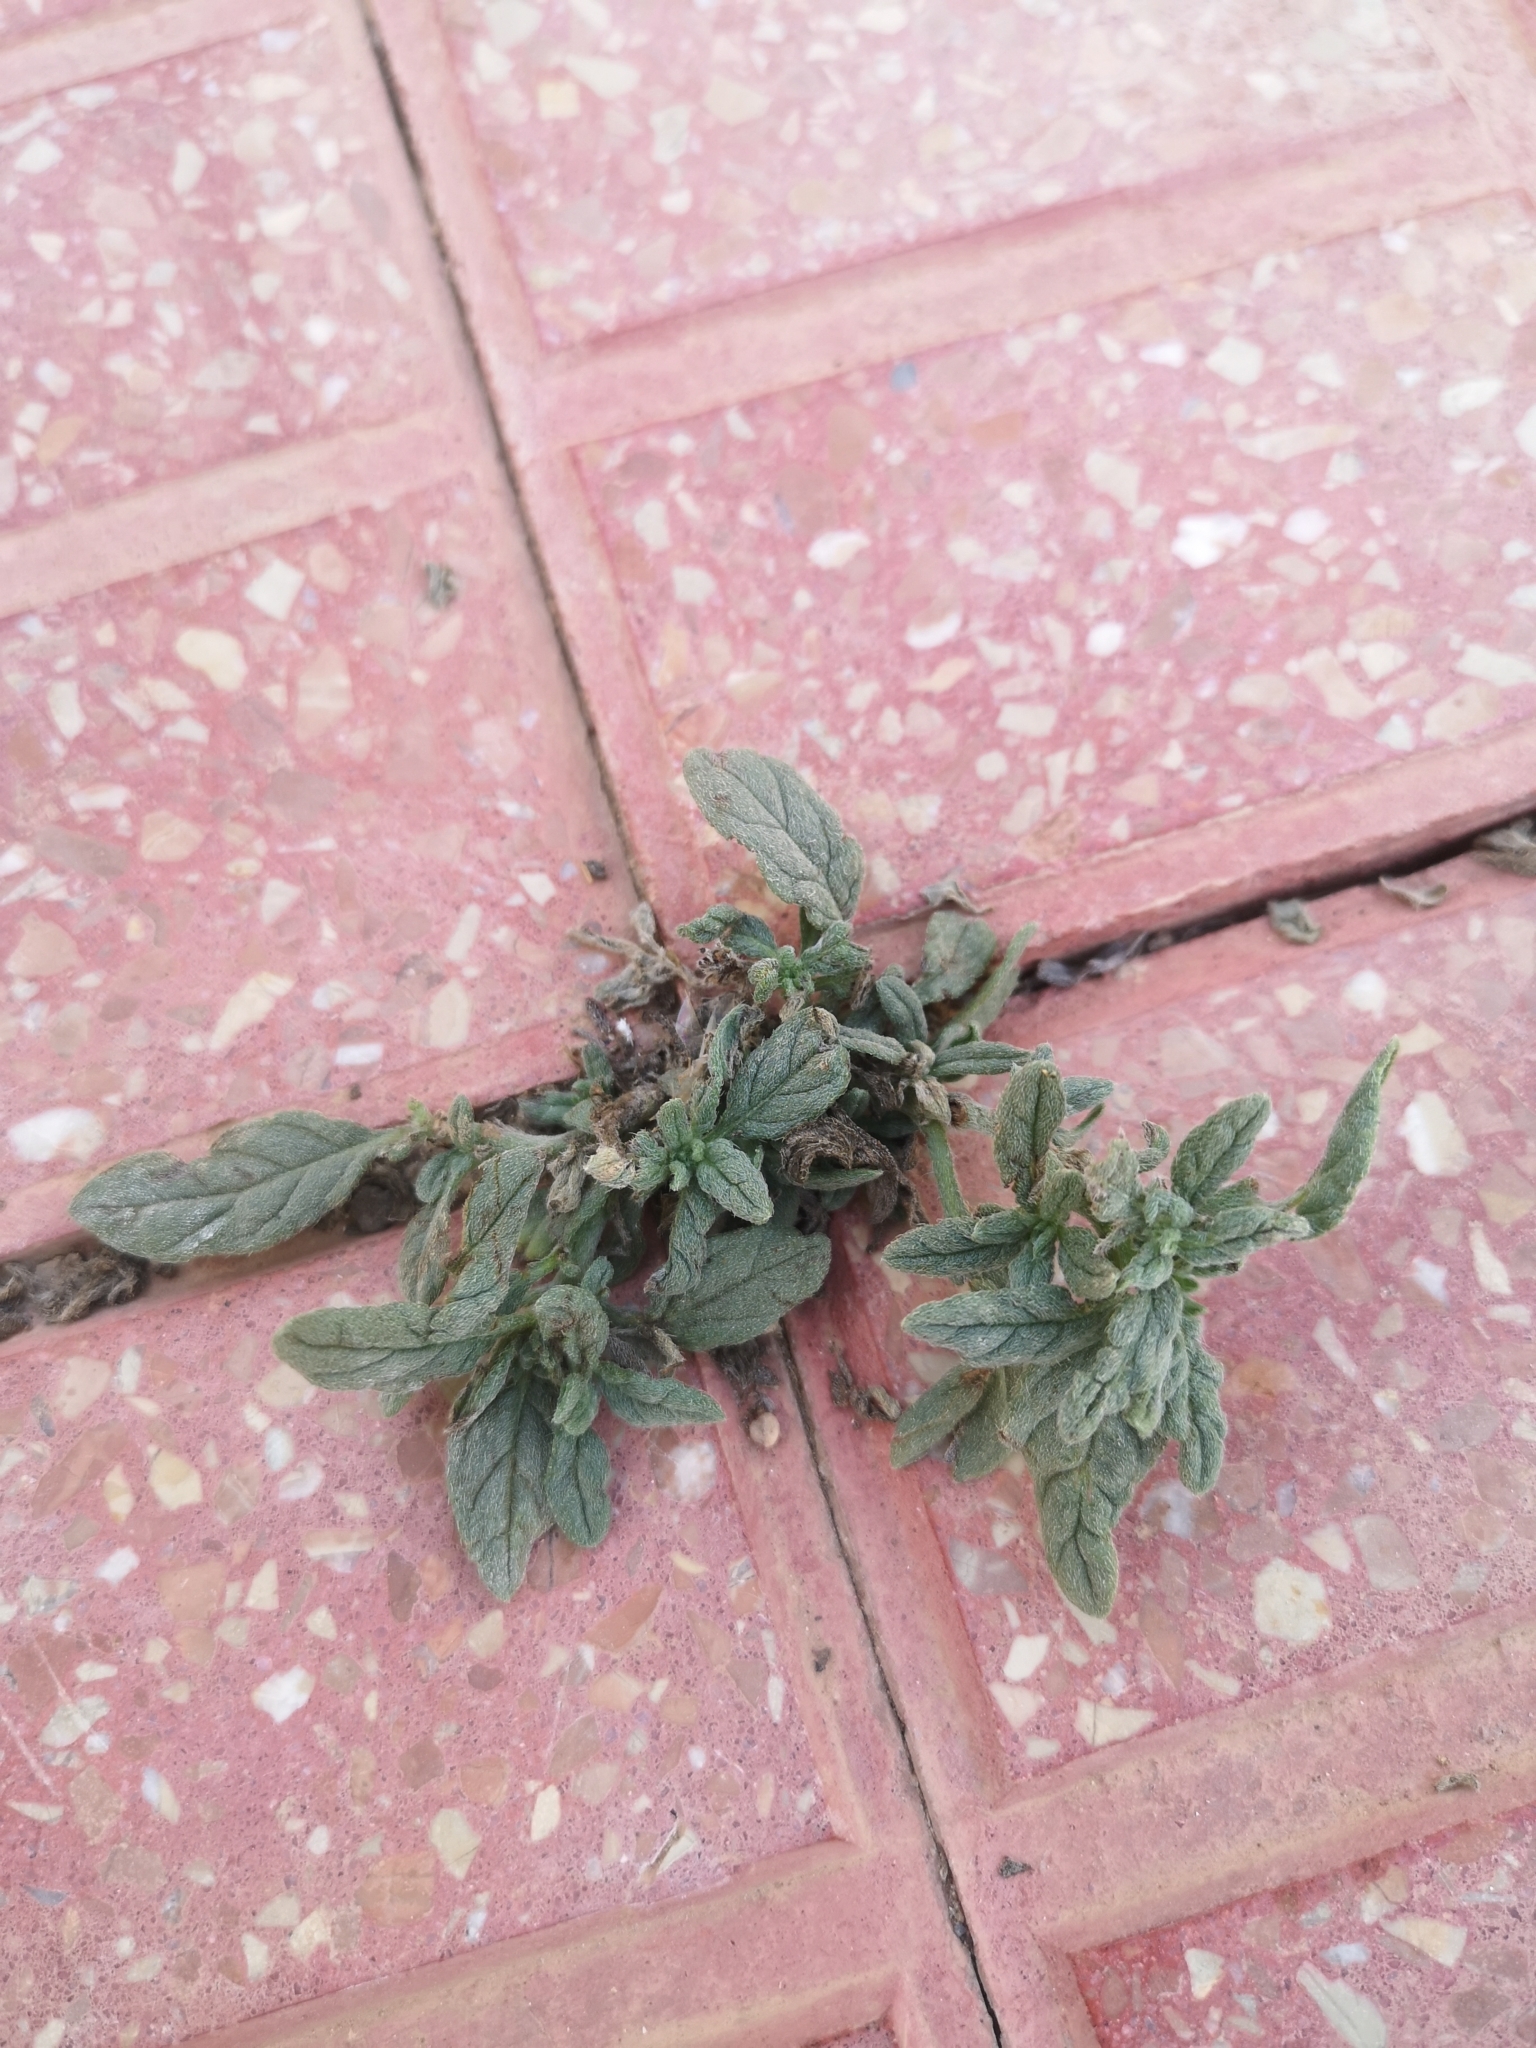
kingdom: Plantae
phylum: Tracheophyta
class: Magnoliopsida
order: Boraginales
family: Heliotropiaceae
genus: Heliotropium
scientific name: Heliotropium ramosissimum
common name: Wavy heliotrope
